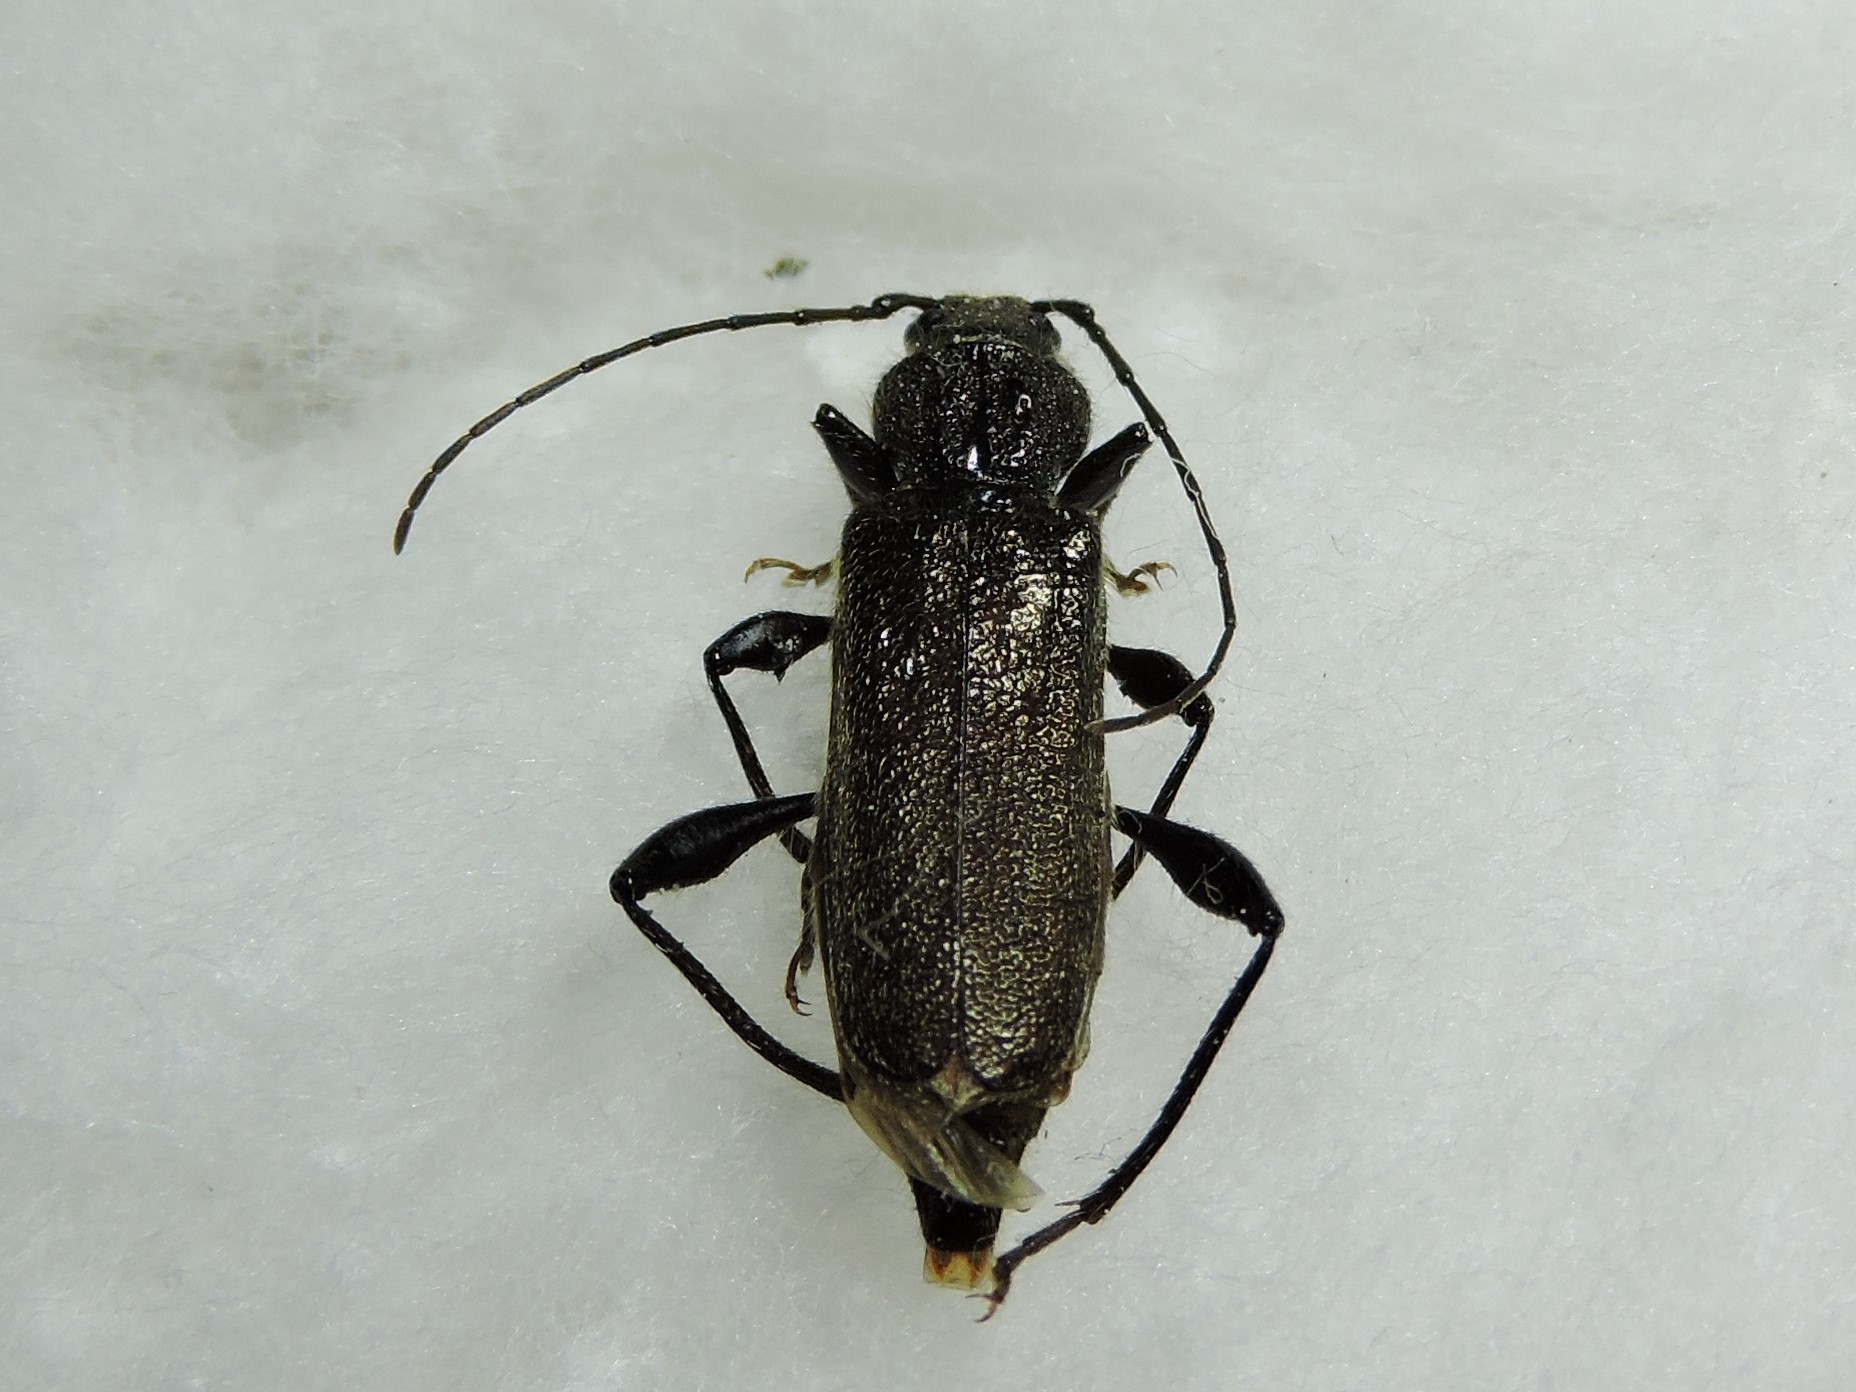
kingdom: Animalia
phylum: Arthropoda
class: Insecta
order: Coleoptera
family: Cerambycidae
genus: Callidium
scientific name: Callidium coriaceum
